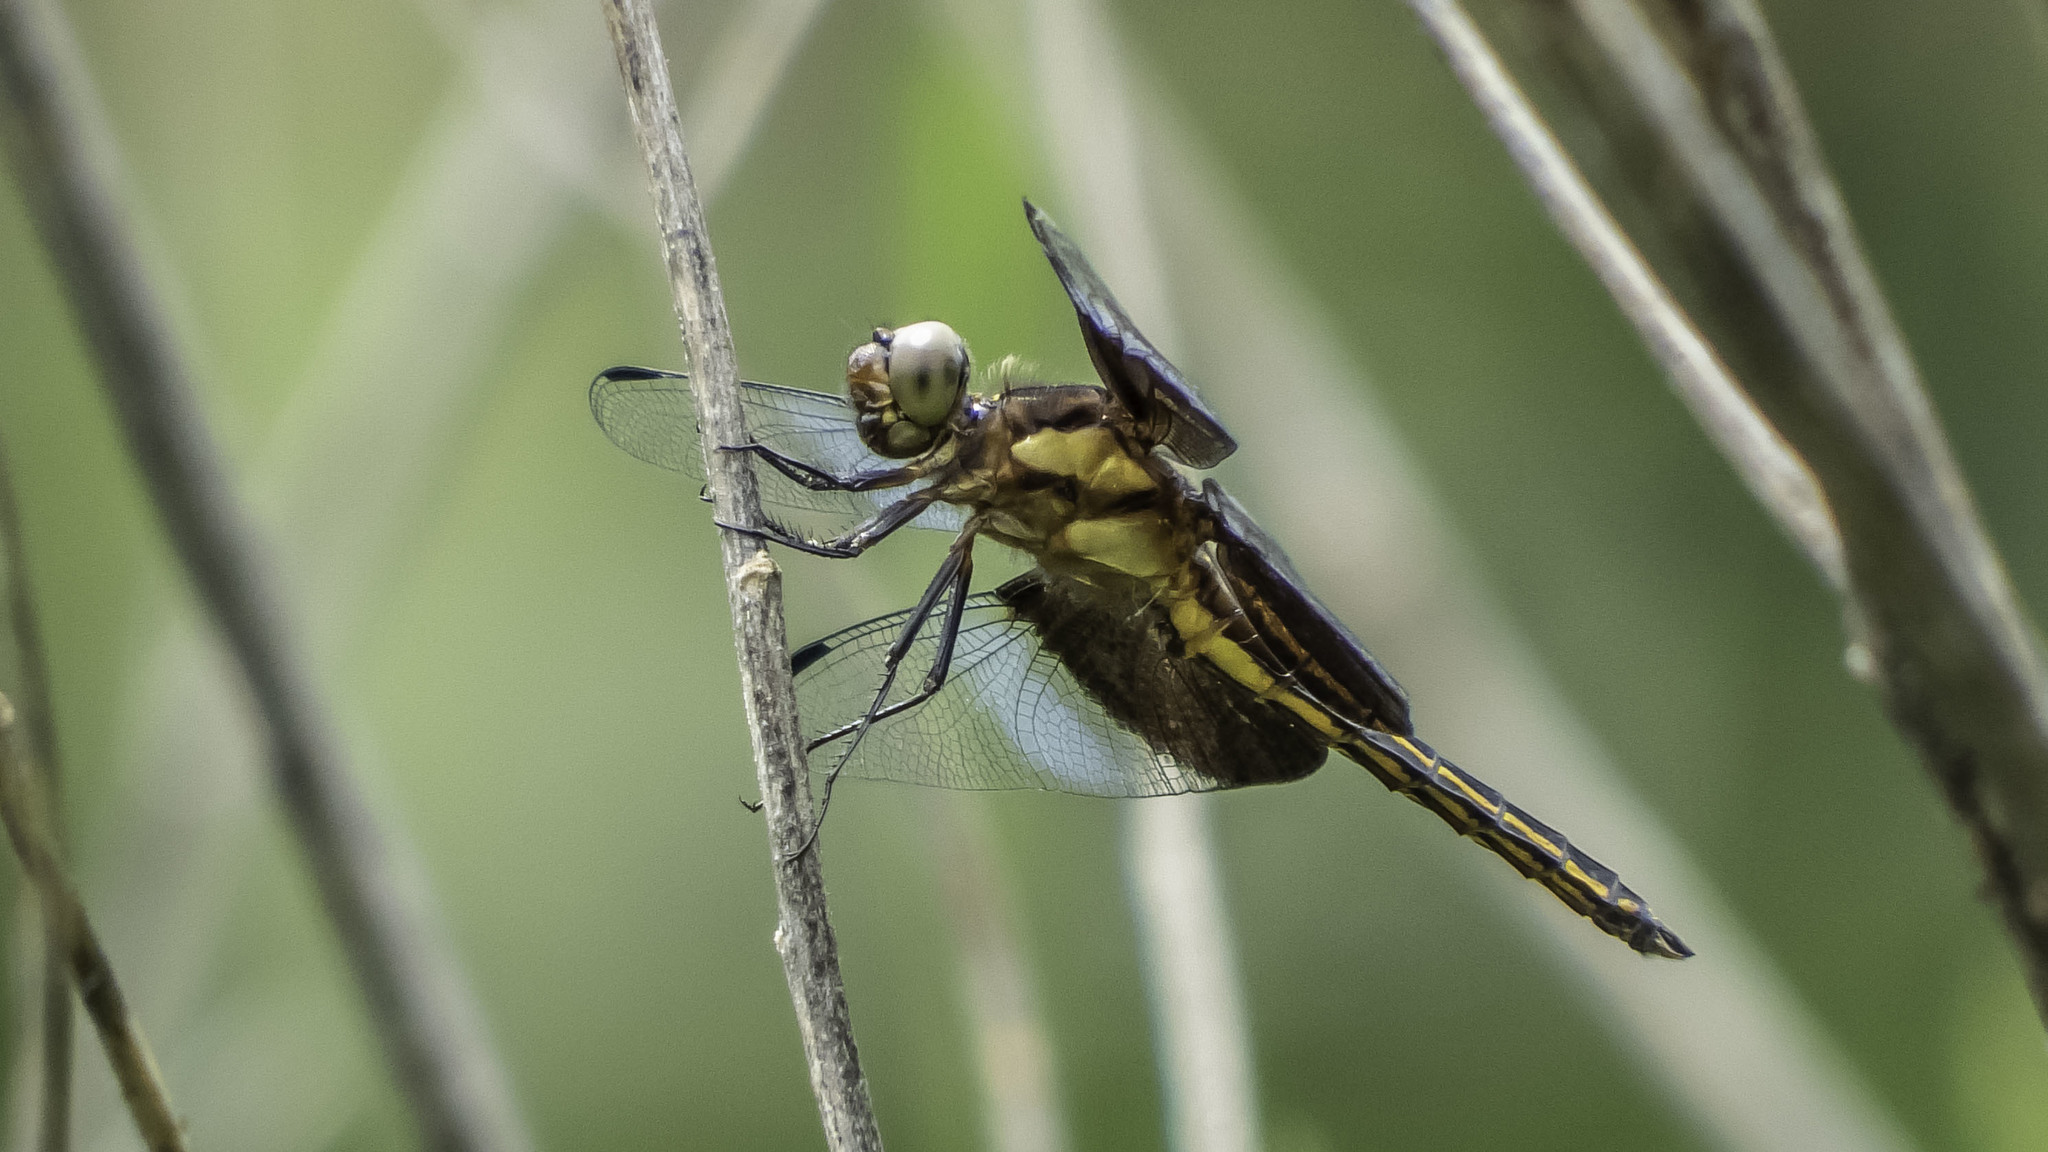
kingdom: Animalia
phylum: Arthropoda
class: Insecta
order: Odonata
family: Libellulidae
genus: Libellula
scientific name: Libellula luctuosa
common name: Widow skimmer
